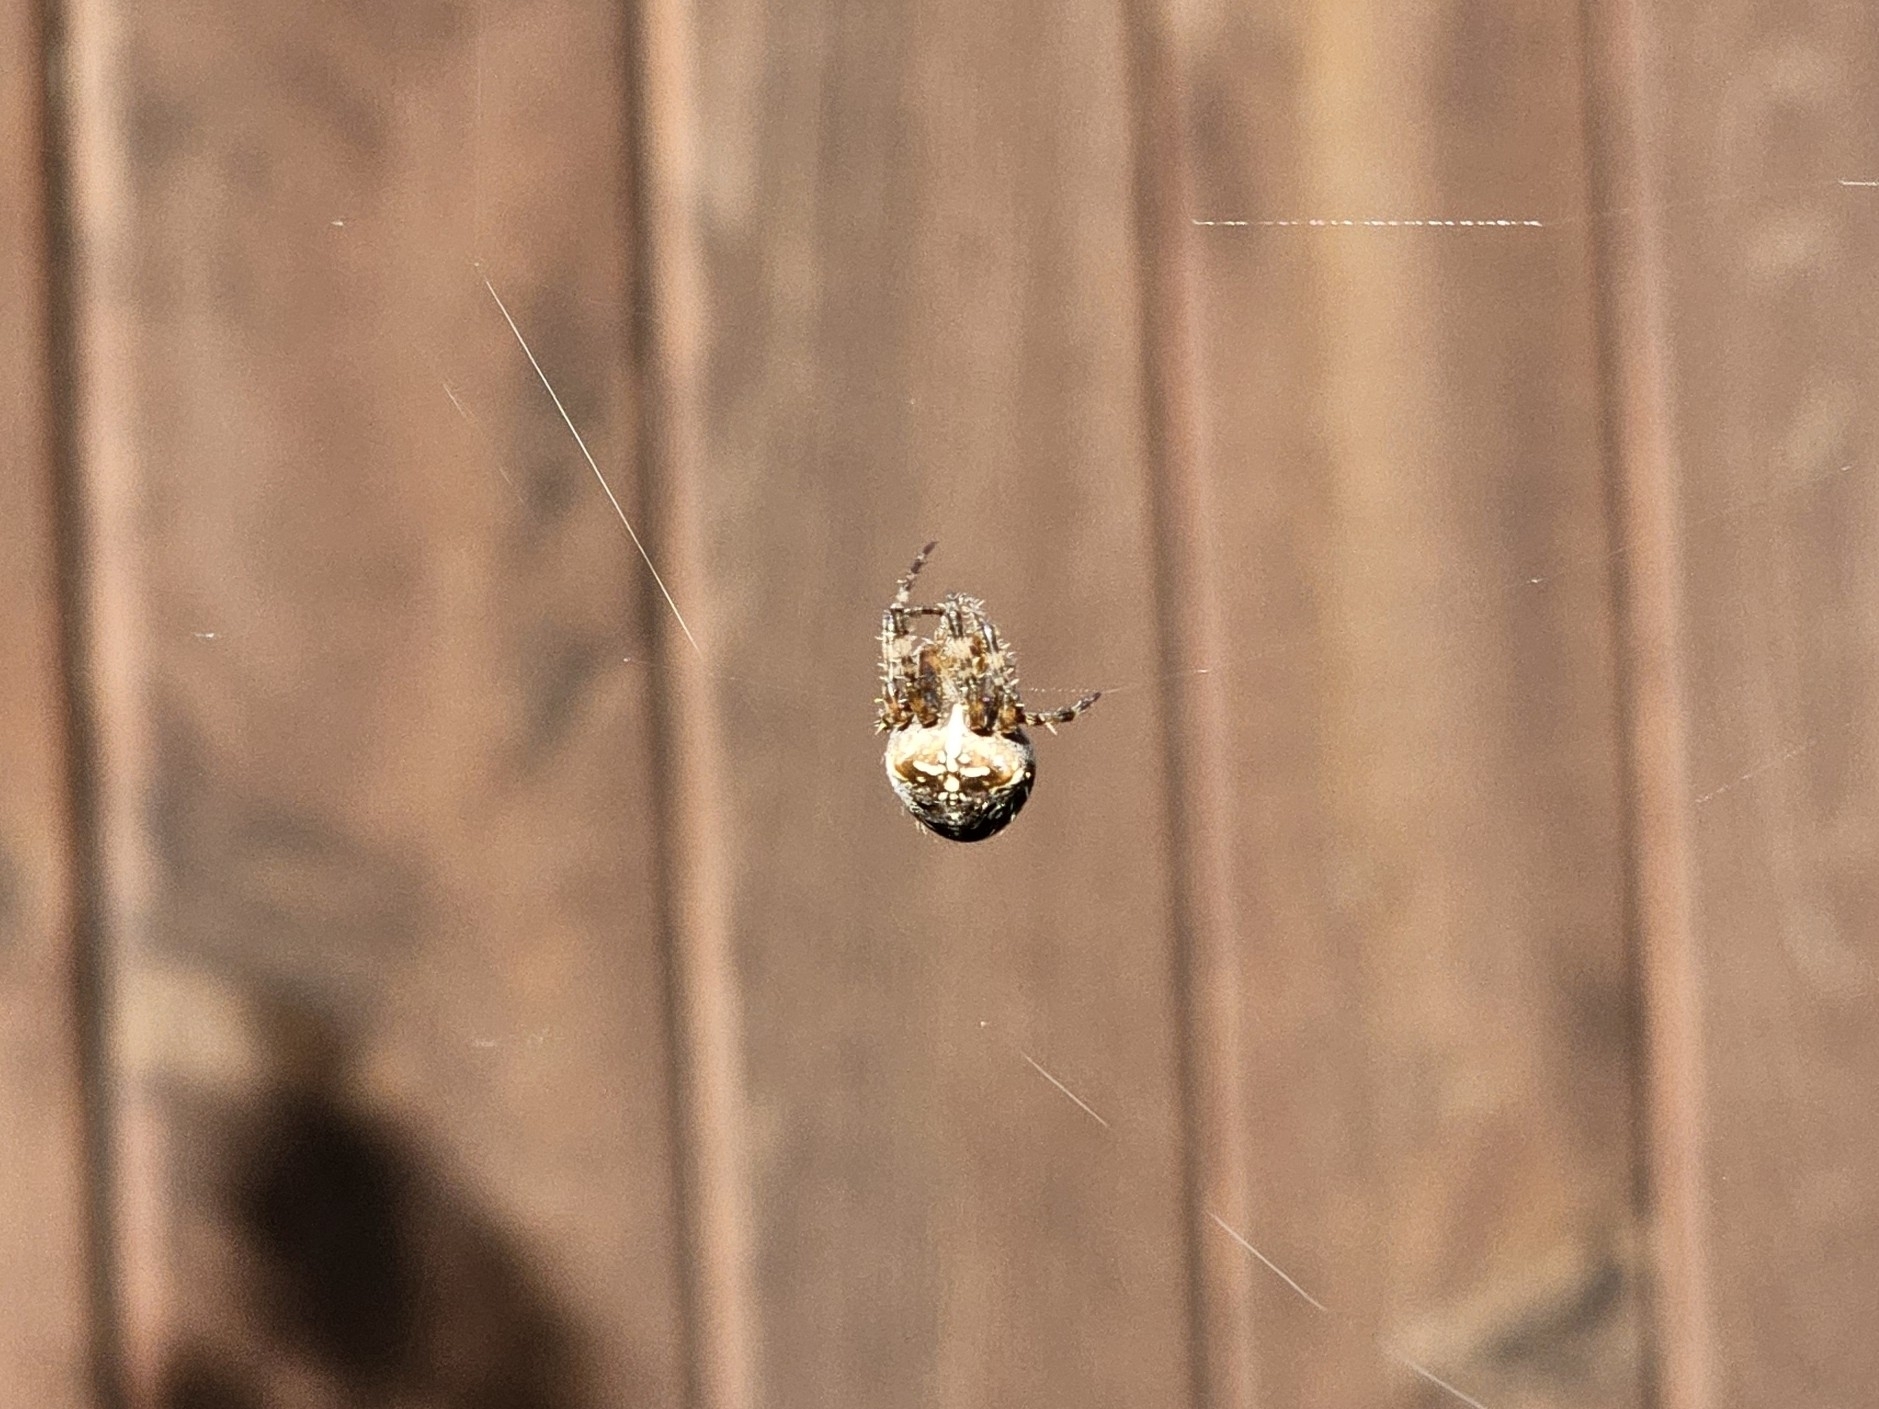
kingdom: Animalia
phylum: Arthropoda
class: Arachnida
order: Araneae
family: Araneidae
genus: Araneus
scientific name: Araneus diadematus
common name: Cross orbweaver
